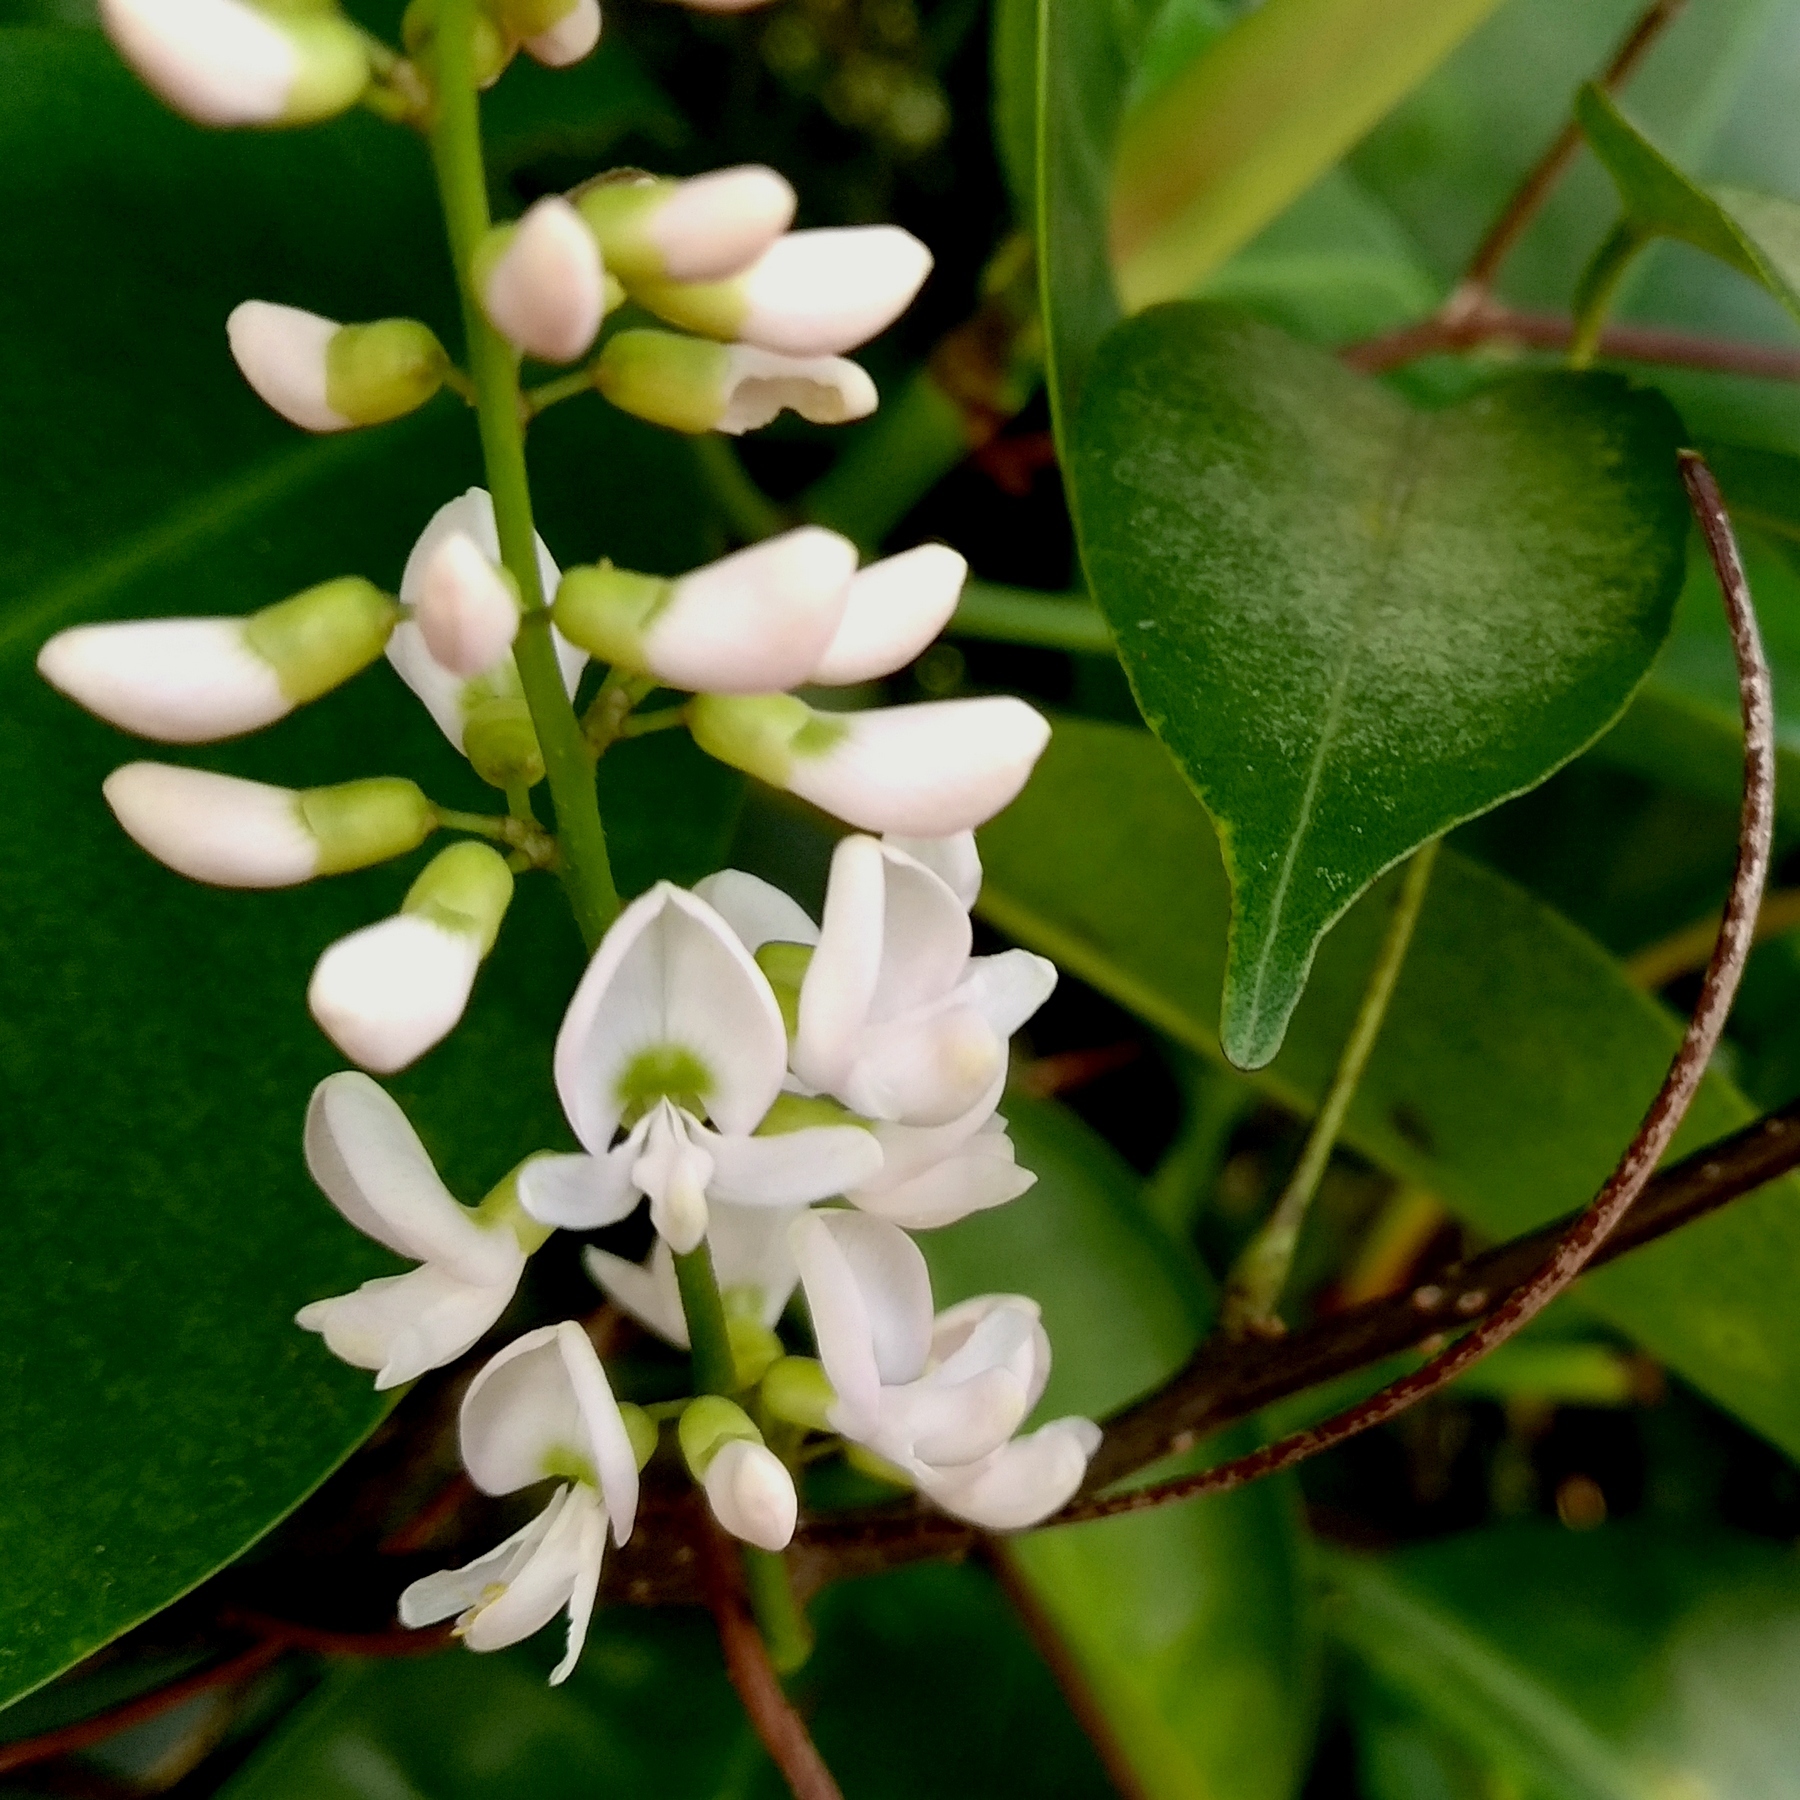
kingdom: Plantae
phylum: Tracheophyta
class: Magnoliopsida
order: Fabales
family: Fabaceae
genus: Derris
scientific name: Derris trifoliata
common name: Three-leaf derris
